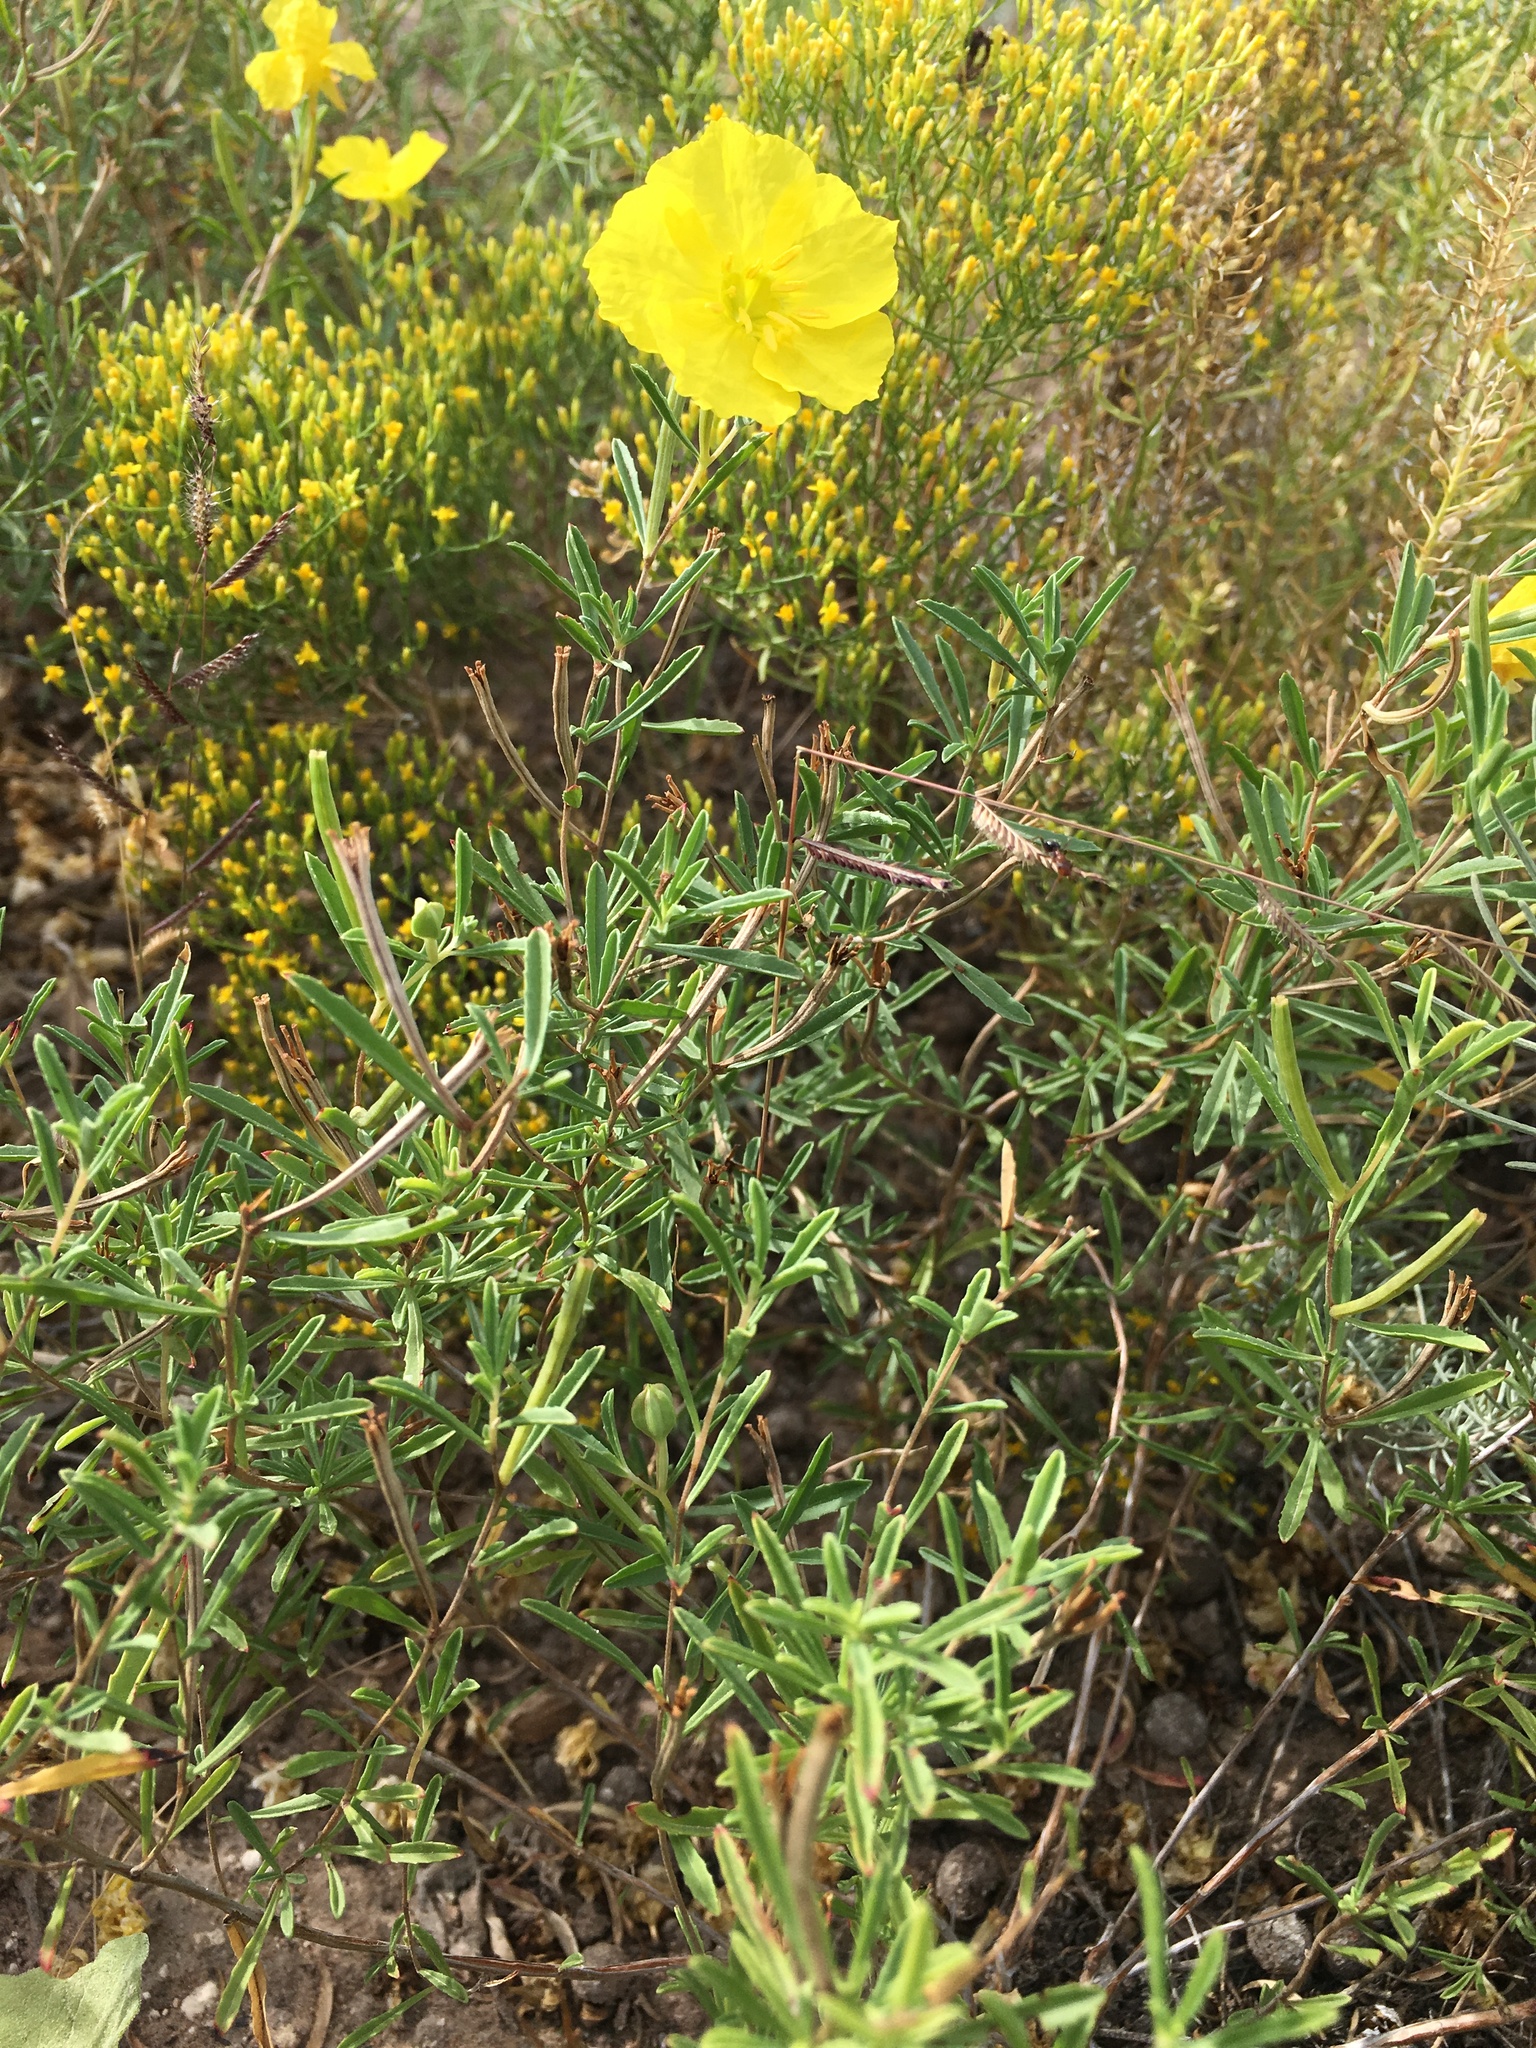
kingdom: Plantae
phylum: Tracheophyta
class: Magnoliopsida
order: Myrtales
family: Onagraceae
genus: Oenothera
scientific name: Oenothera
